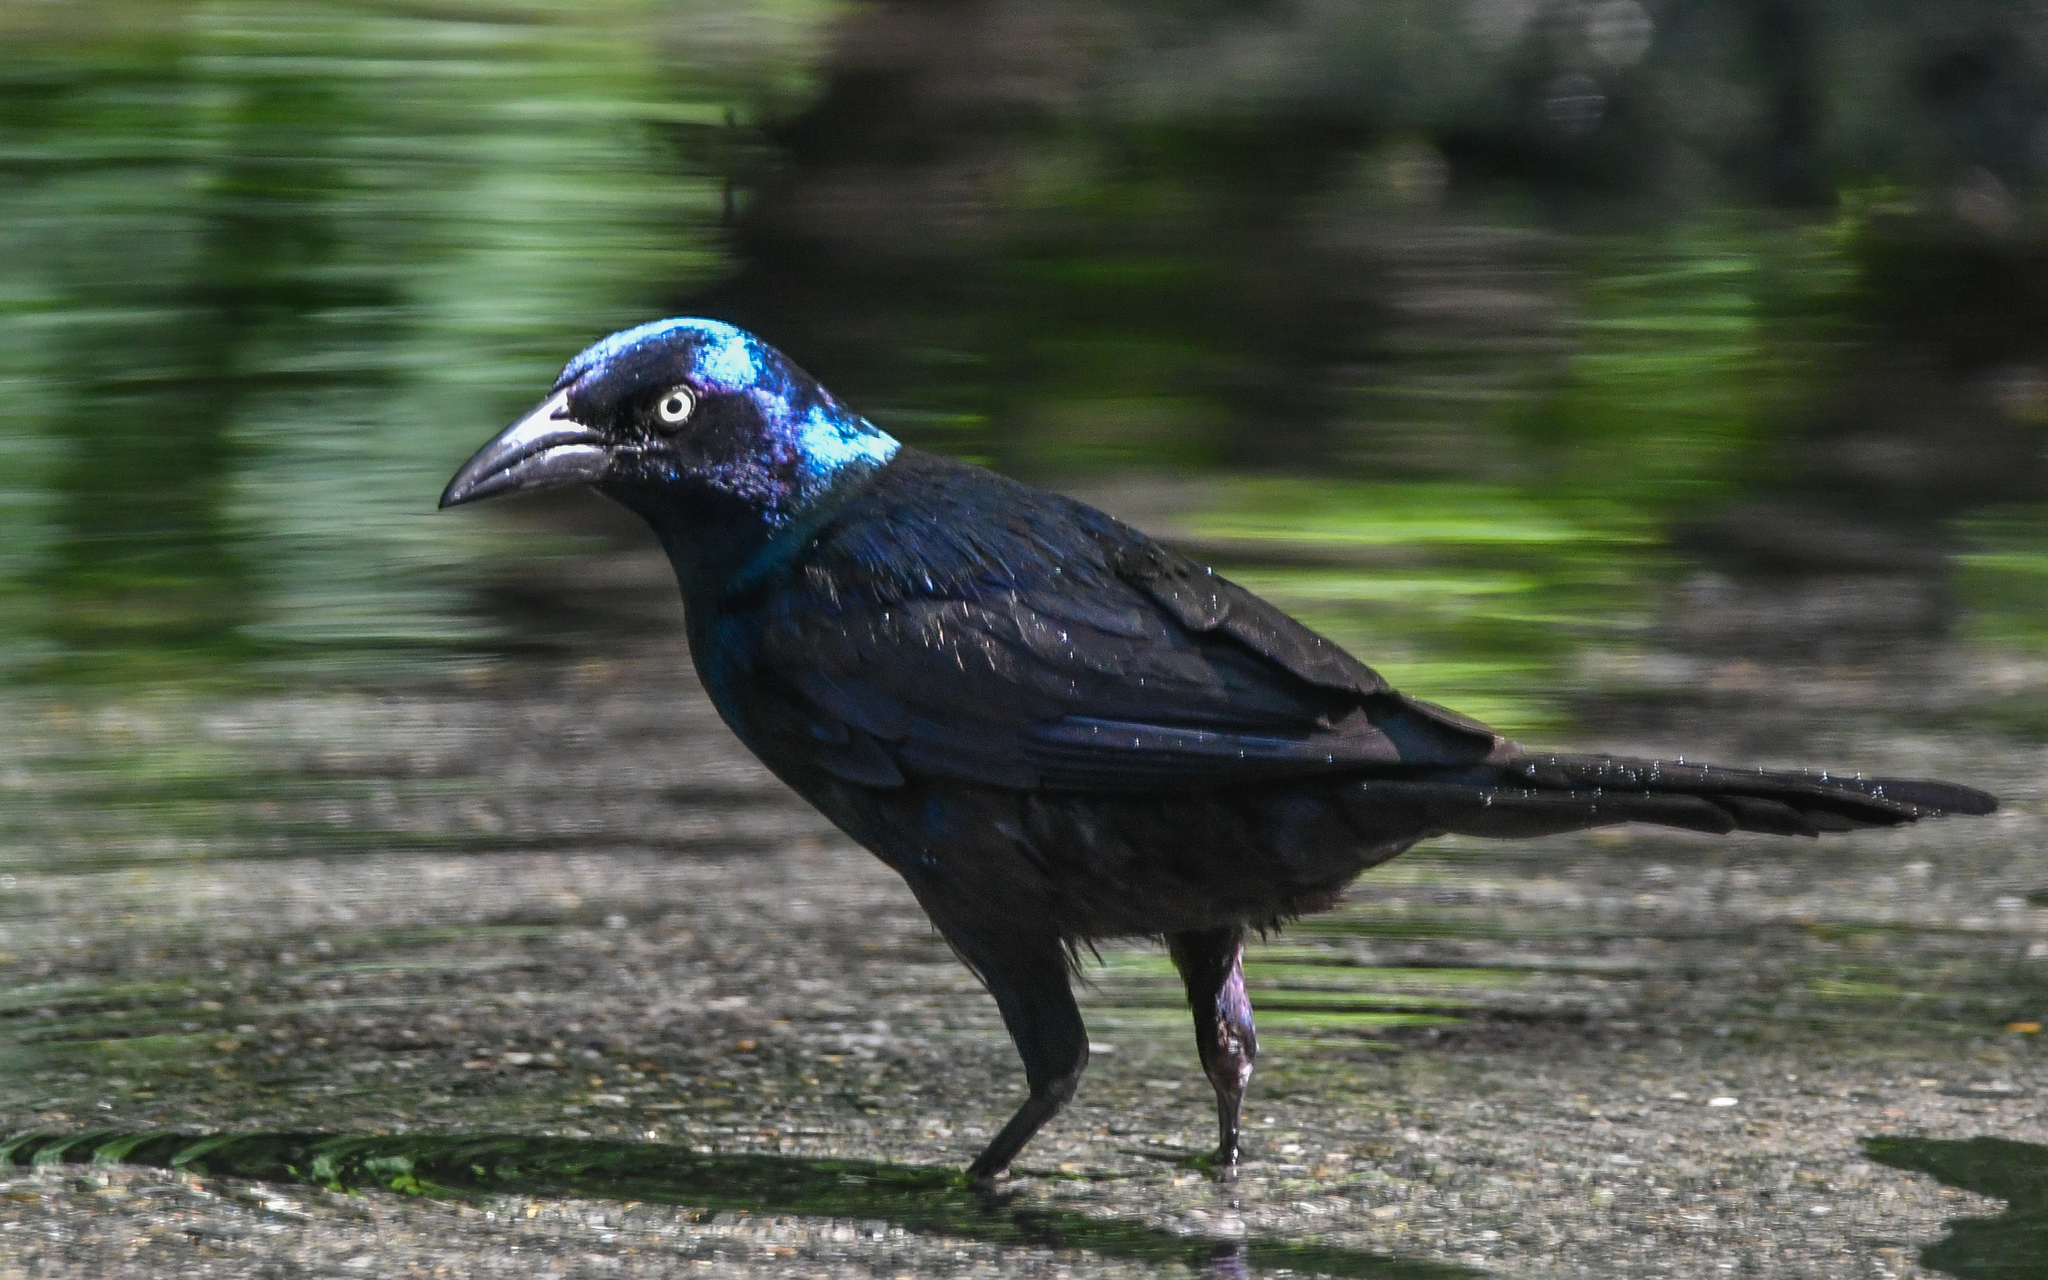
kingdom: Animalia
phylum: Chordata
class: Aves
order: Passeriformes
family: Icteridae
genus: Quiscalus
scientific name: Quiscalus quiscula
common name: Common grackle
